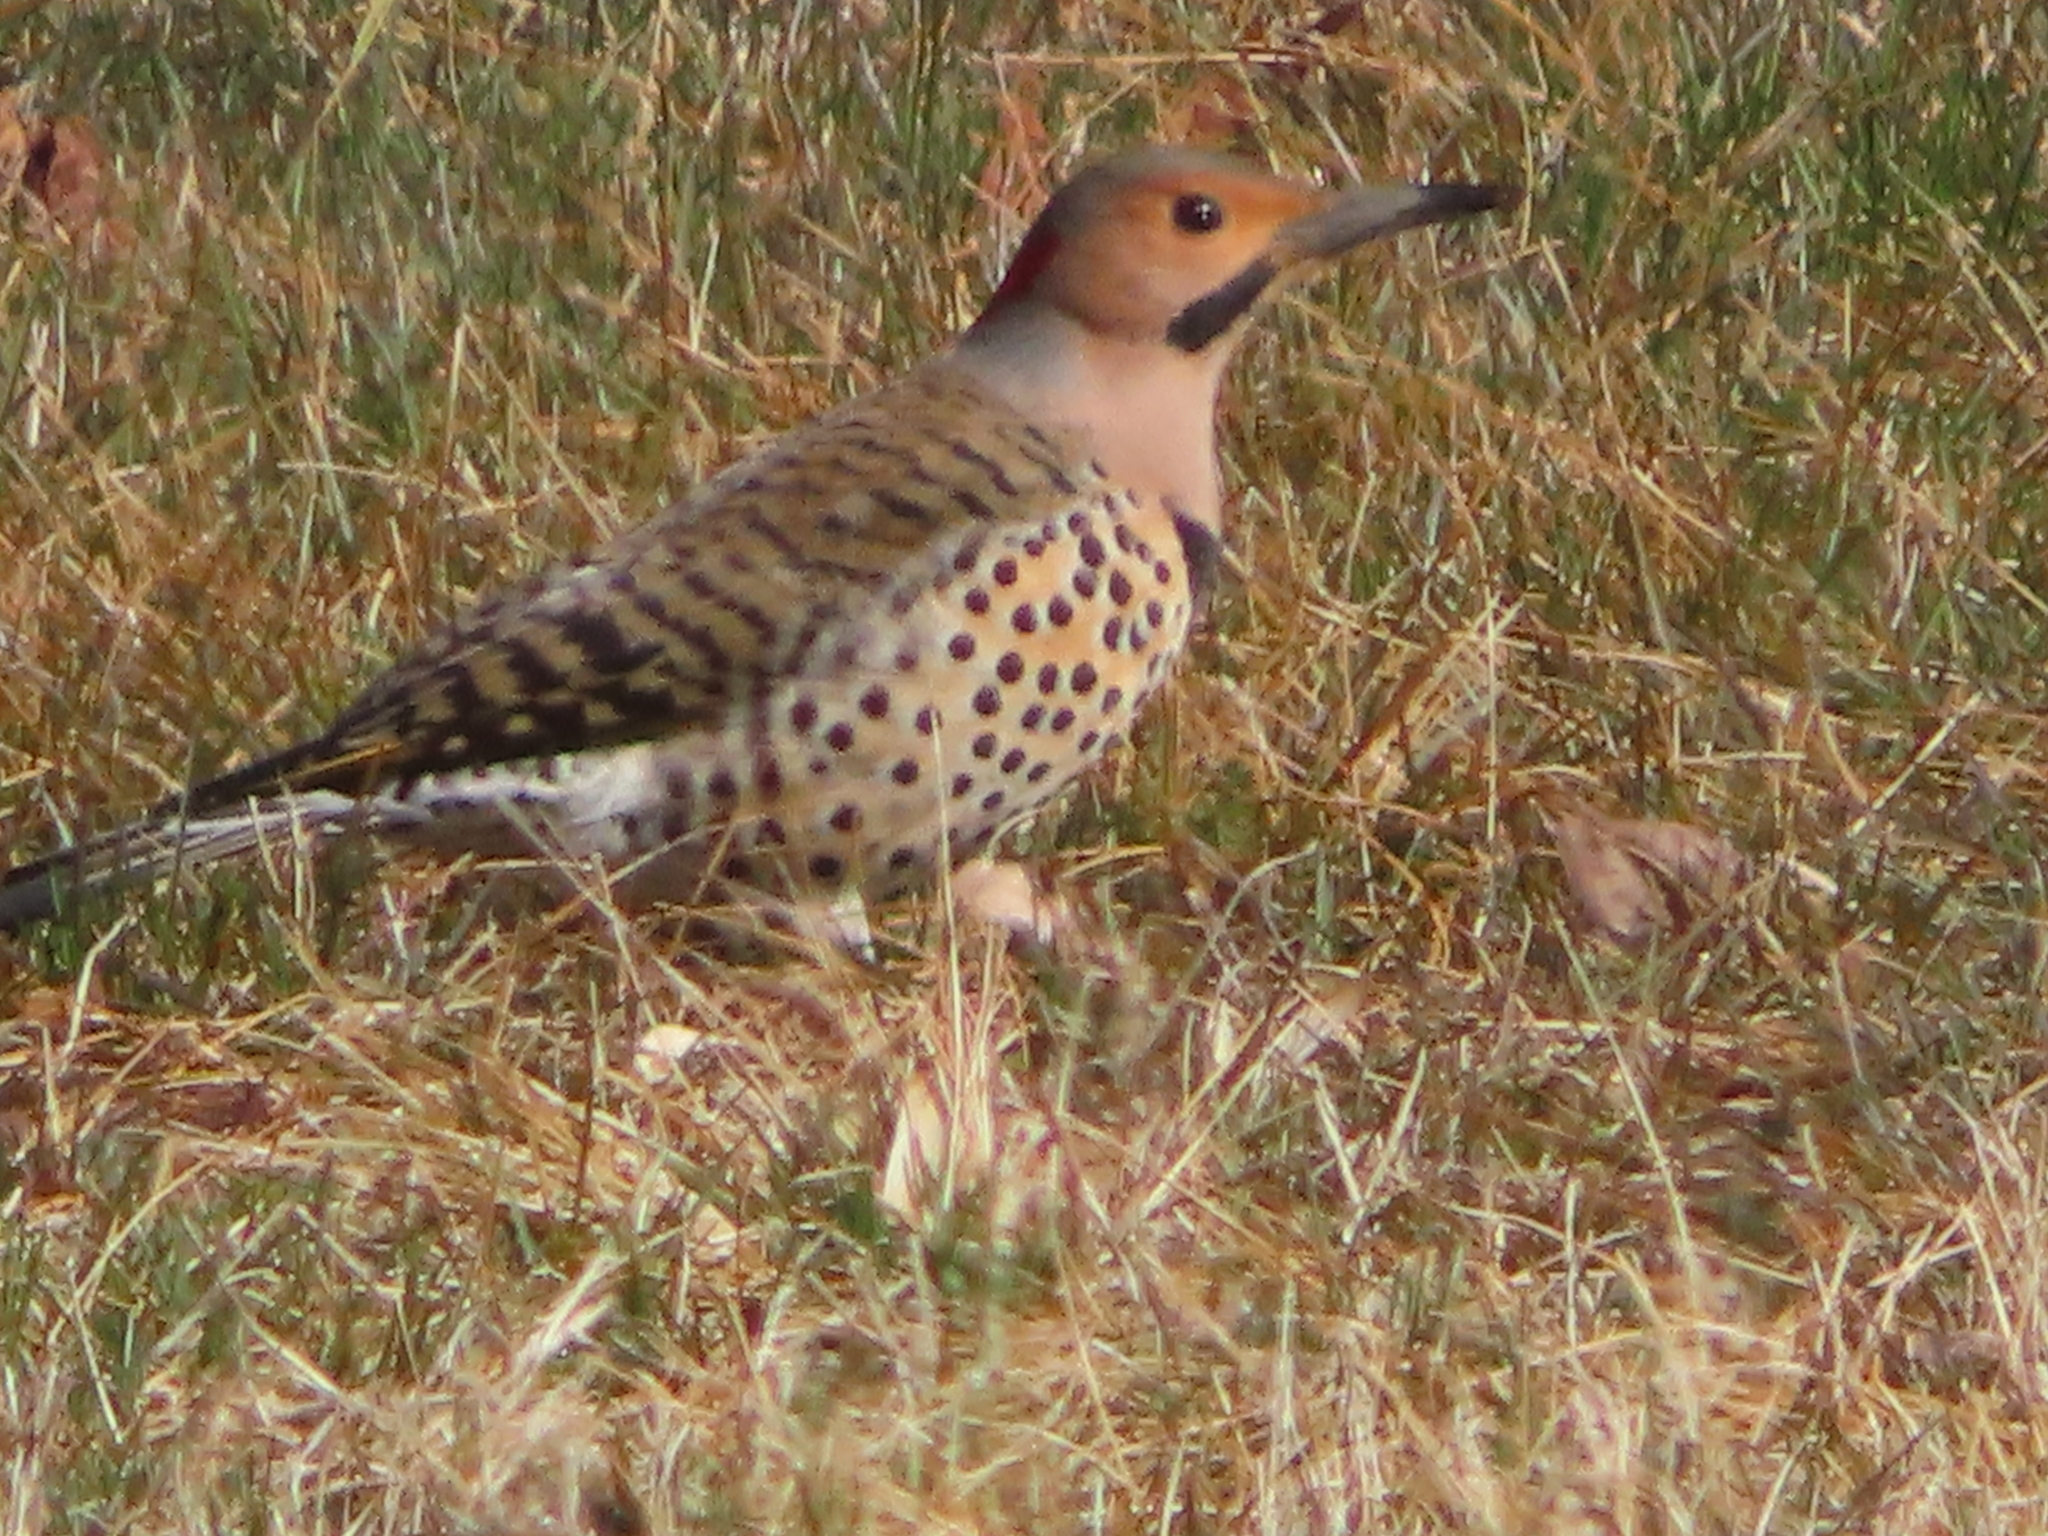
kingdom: Animalia
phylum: Chordata
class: Aves
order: Piciformes
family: Picidae
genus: Colaptes
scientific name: Colaptes auratus
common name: Northern flicker
